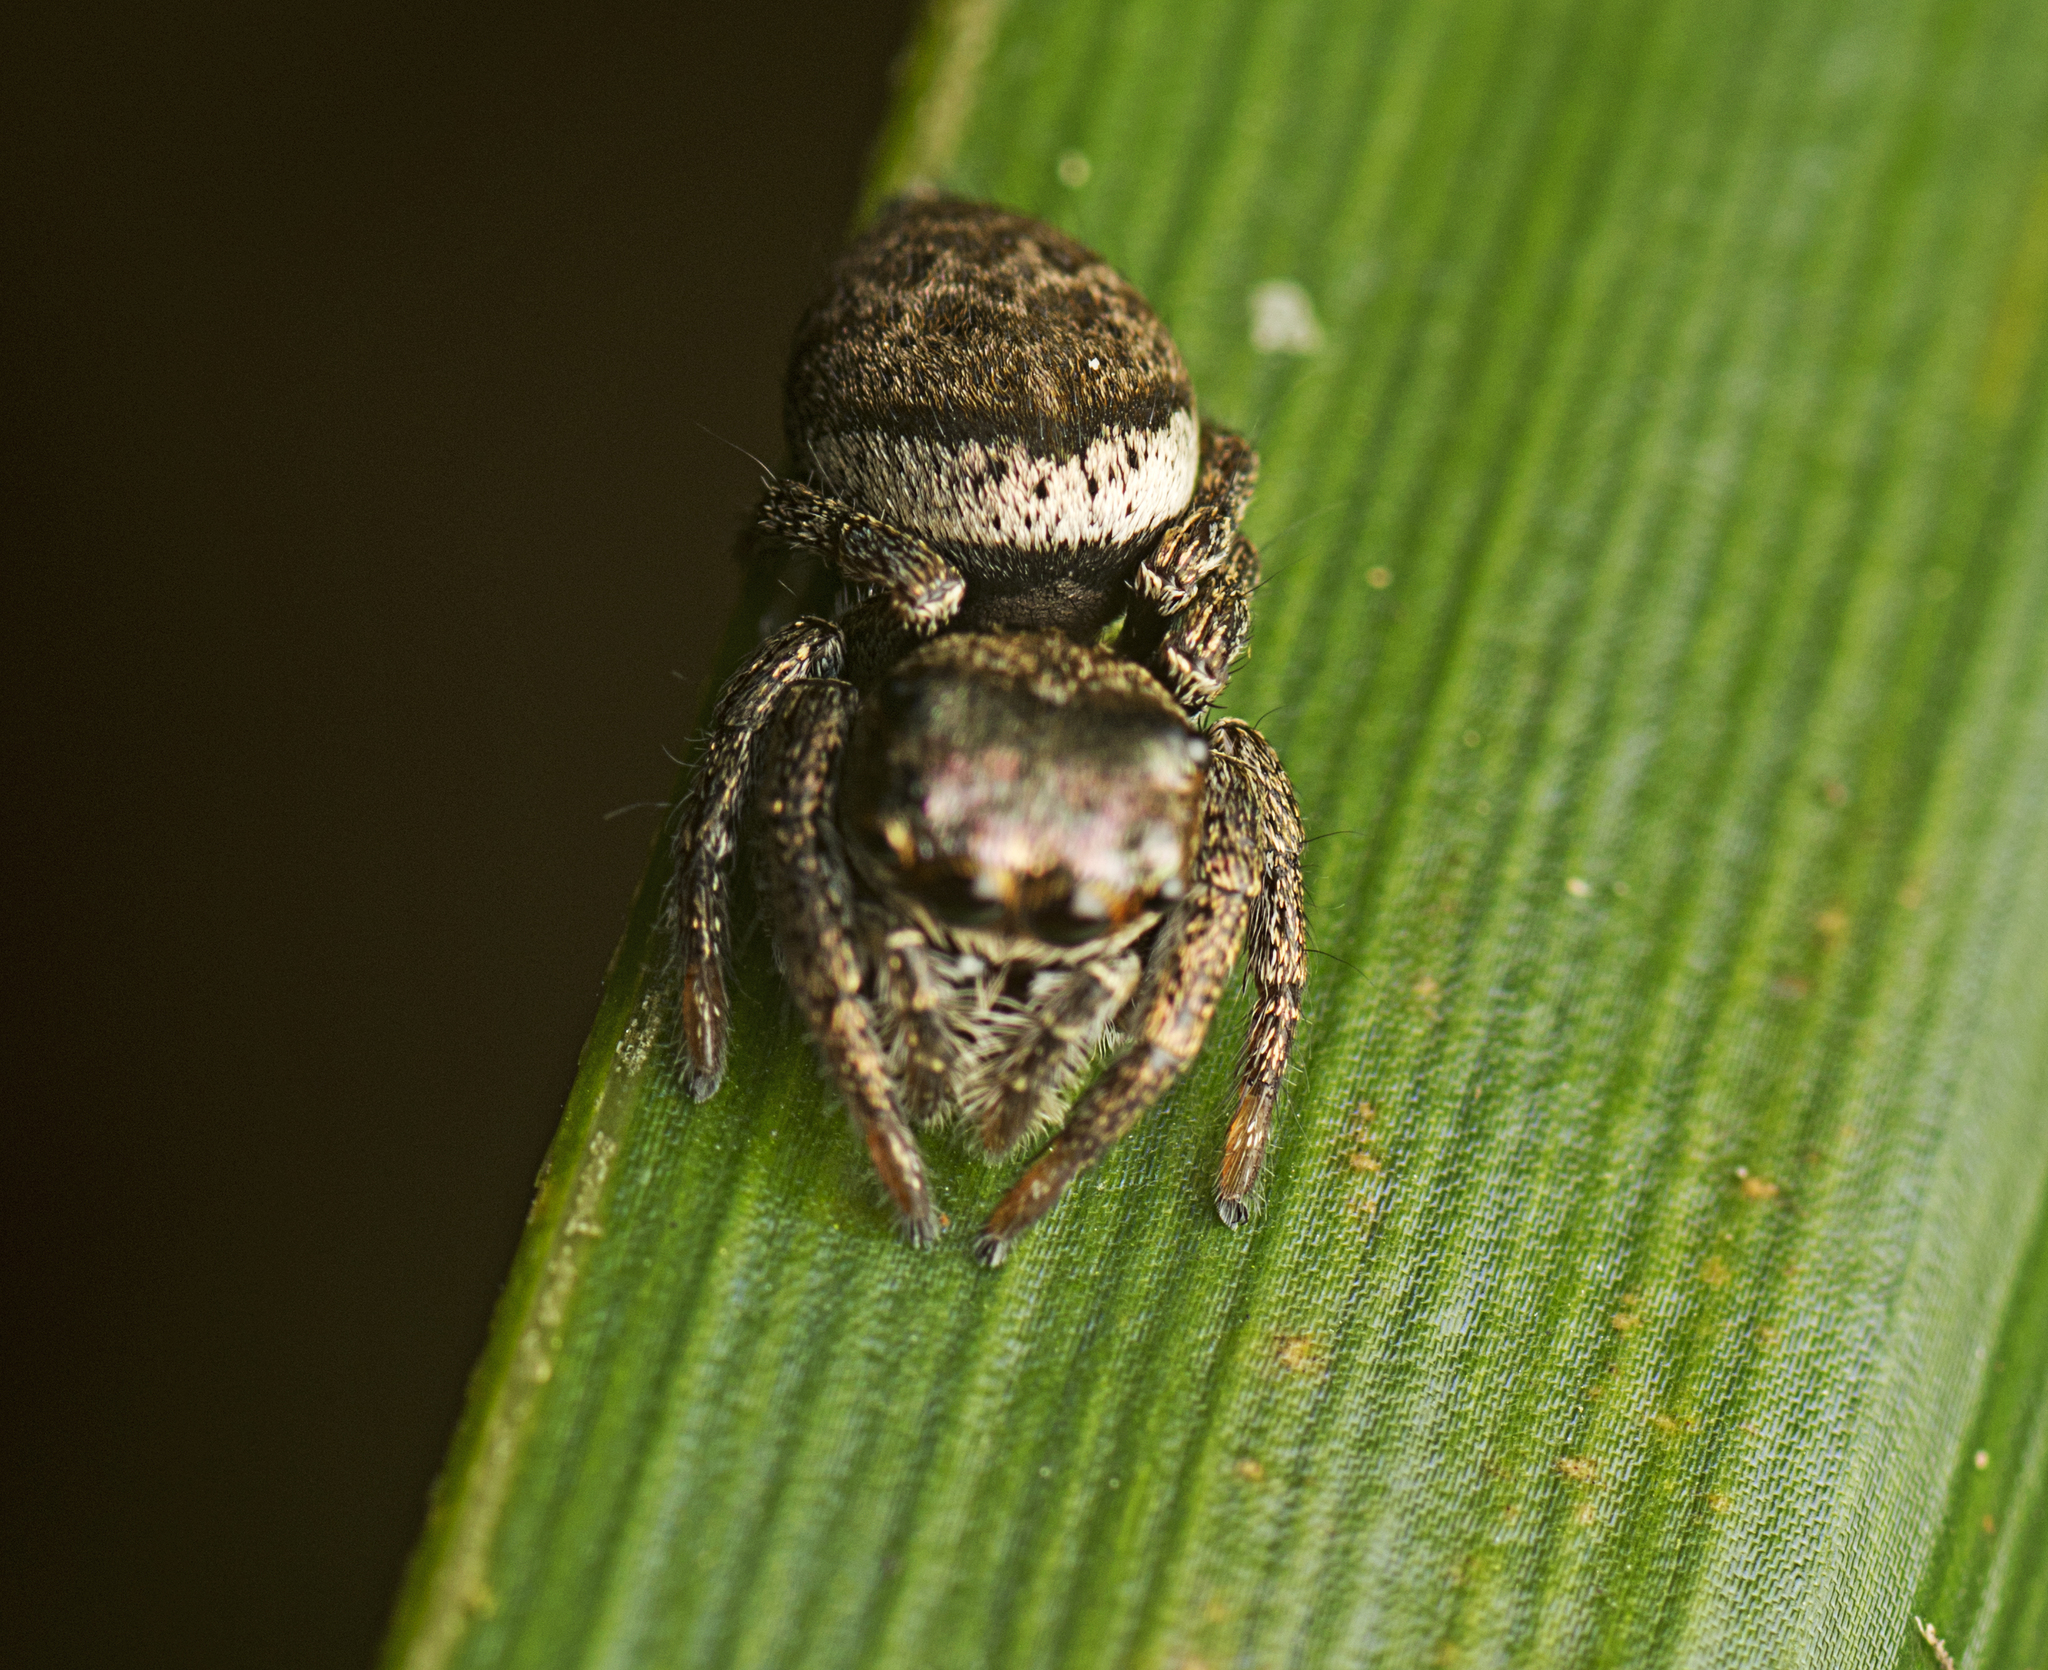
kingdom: Animalia
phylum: Arthropoda
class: Arachnida
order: Araneae
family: Salticidae
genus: Euryattus
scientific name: Euryattus bleekeri
